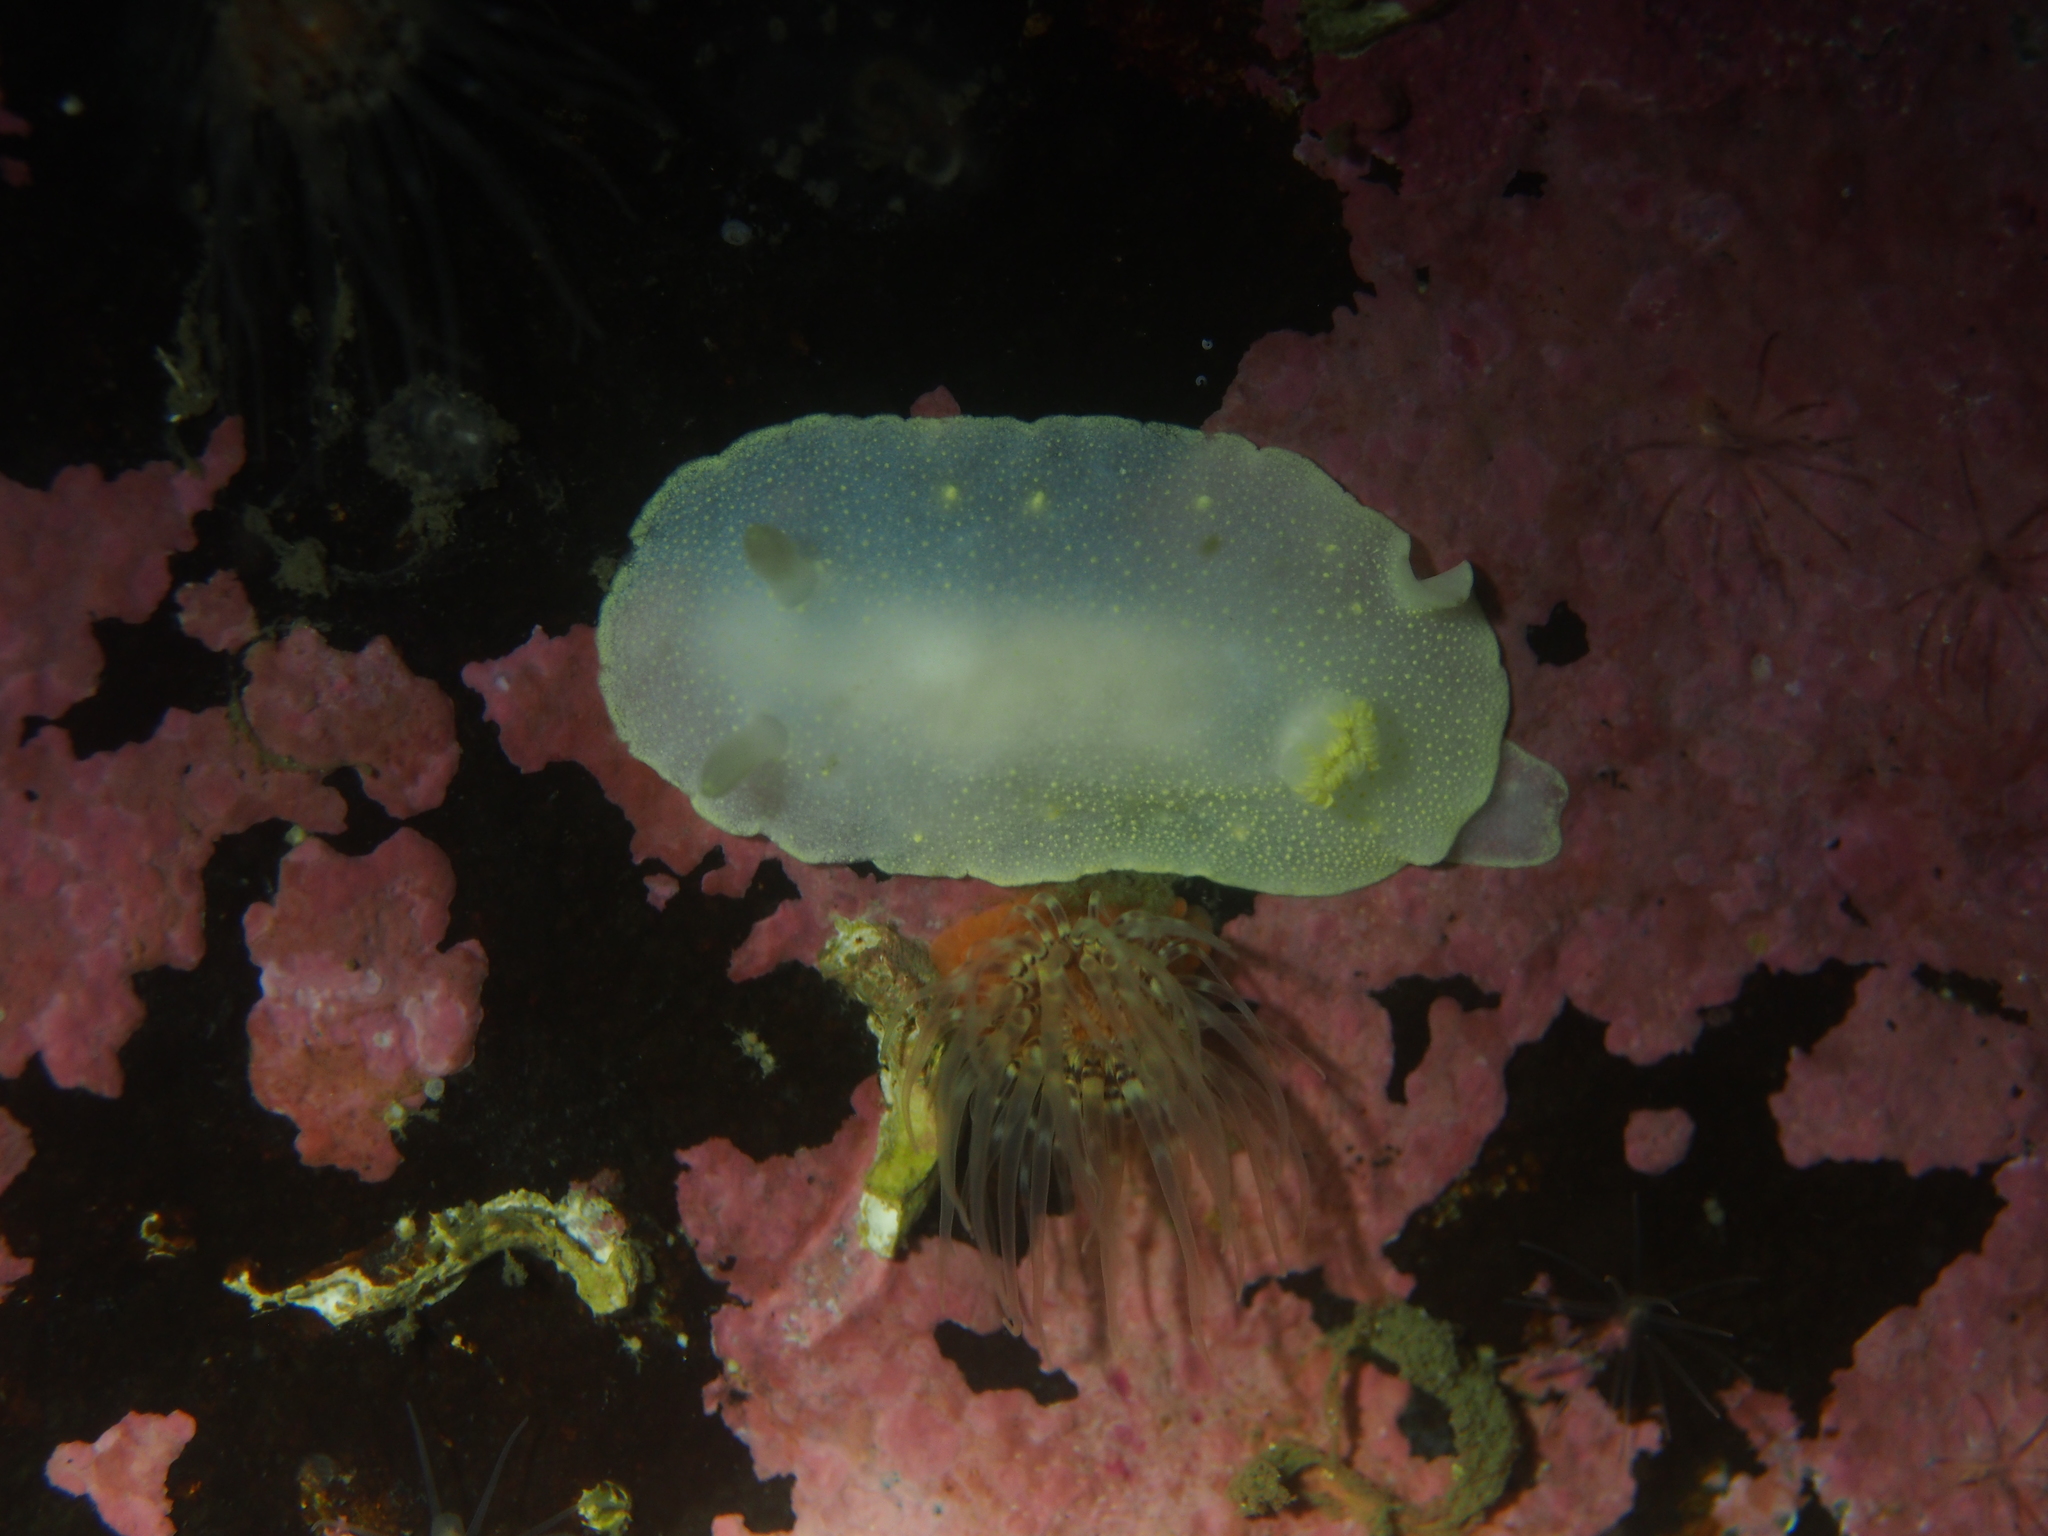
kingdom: Animalia
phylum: Mollusca
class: Gastropoda
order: Nudibranchia
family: Cadlinidae
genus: Cadlina
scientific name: Cadlina laevis
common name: White atlantic cadlina
